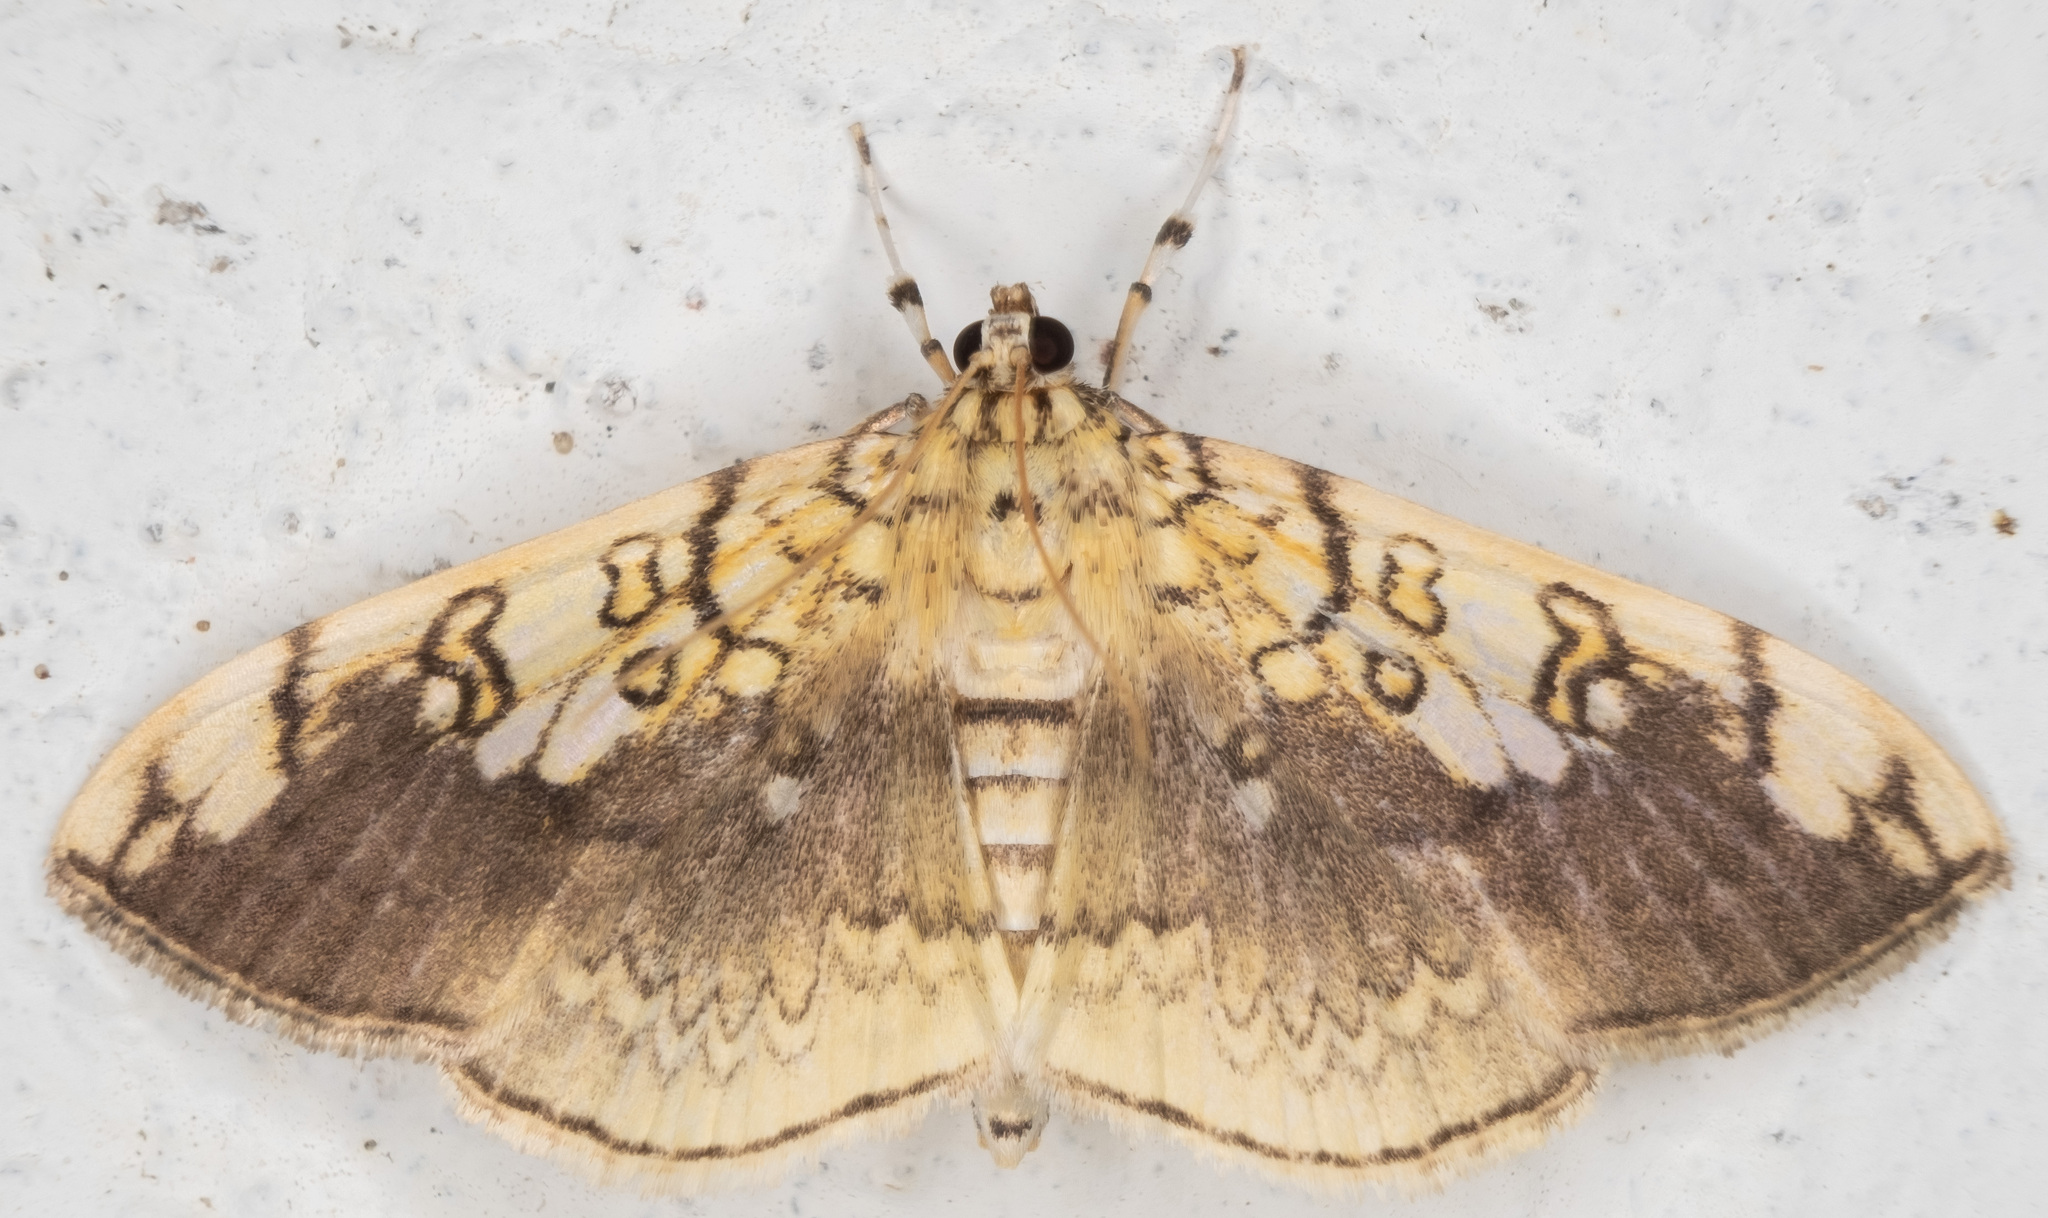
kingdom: Animalia
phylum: Arthropoda
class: Insecta
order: Lepidoptera
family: Crambidae
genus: Pantographa
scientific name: Pantographa limata
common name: Basswood leafroller moth
